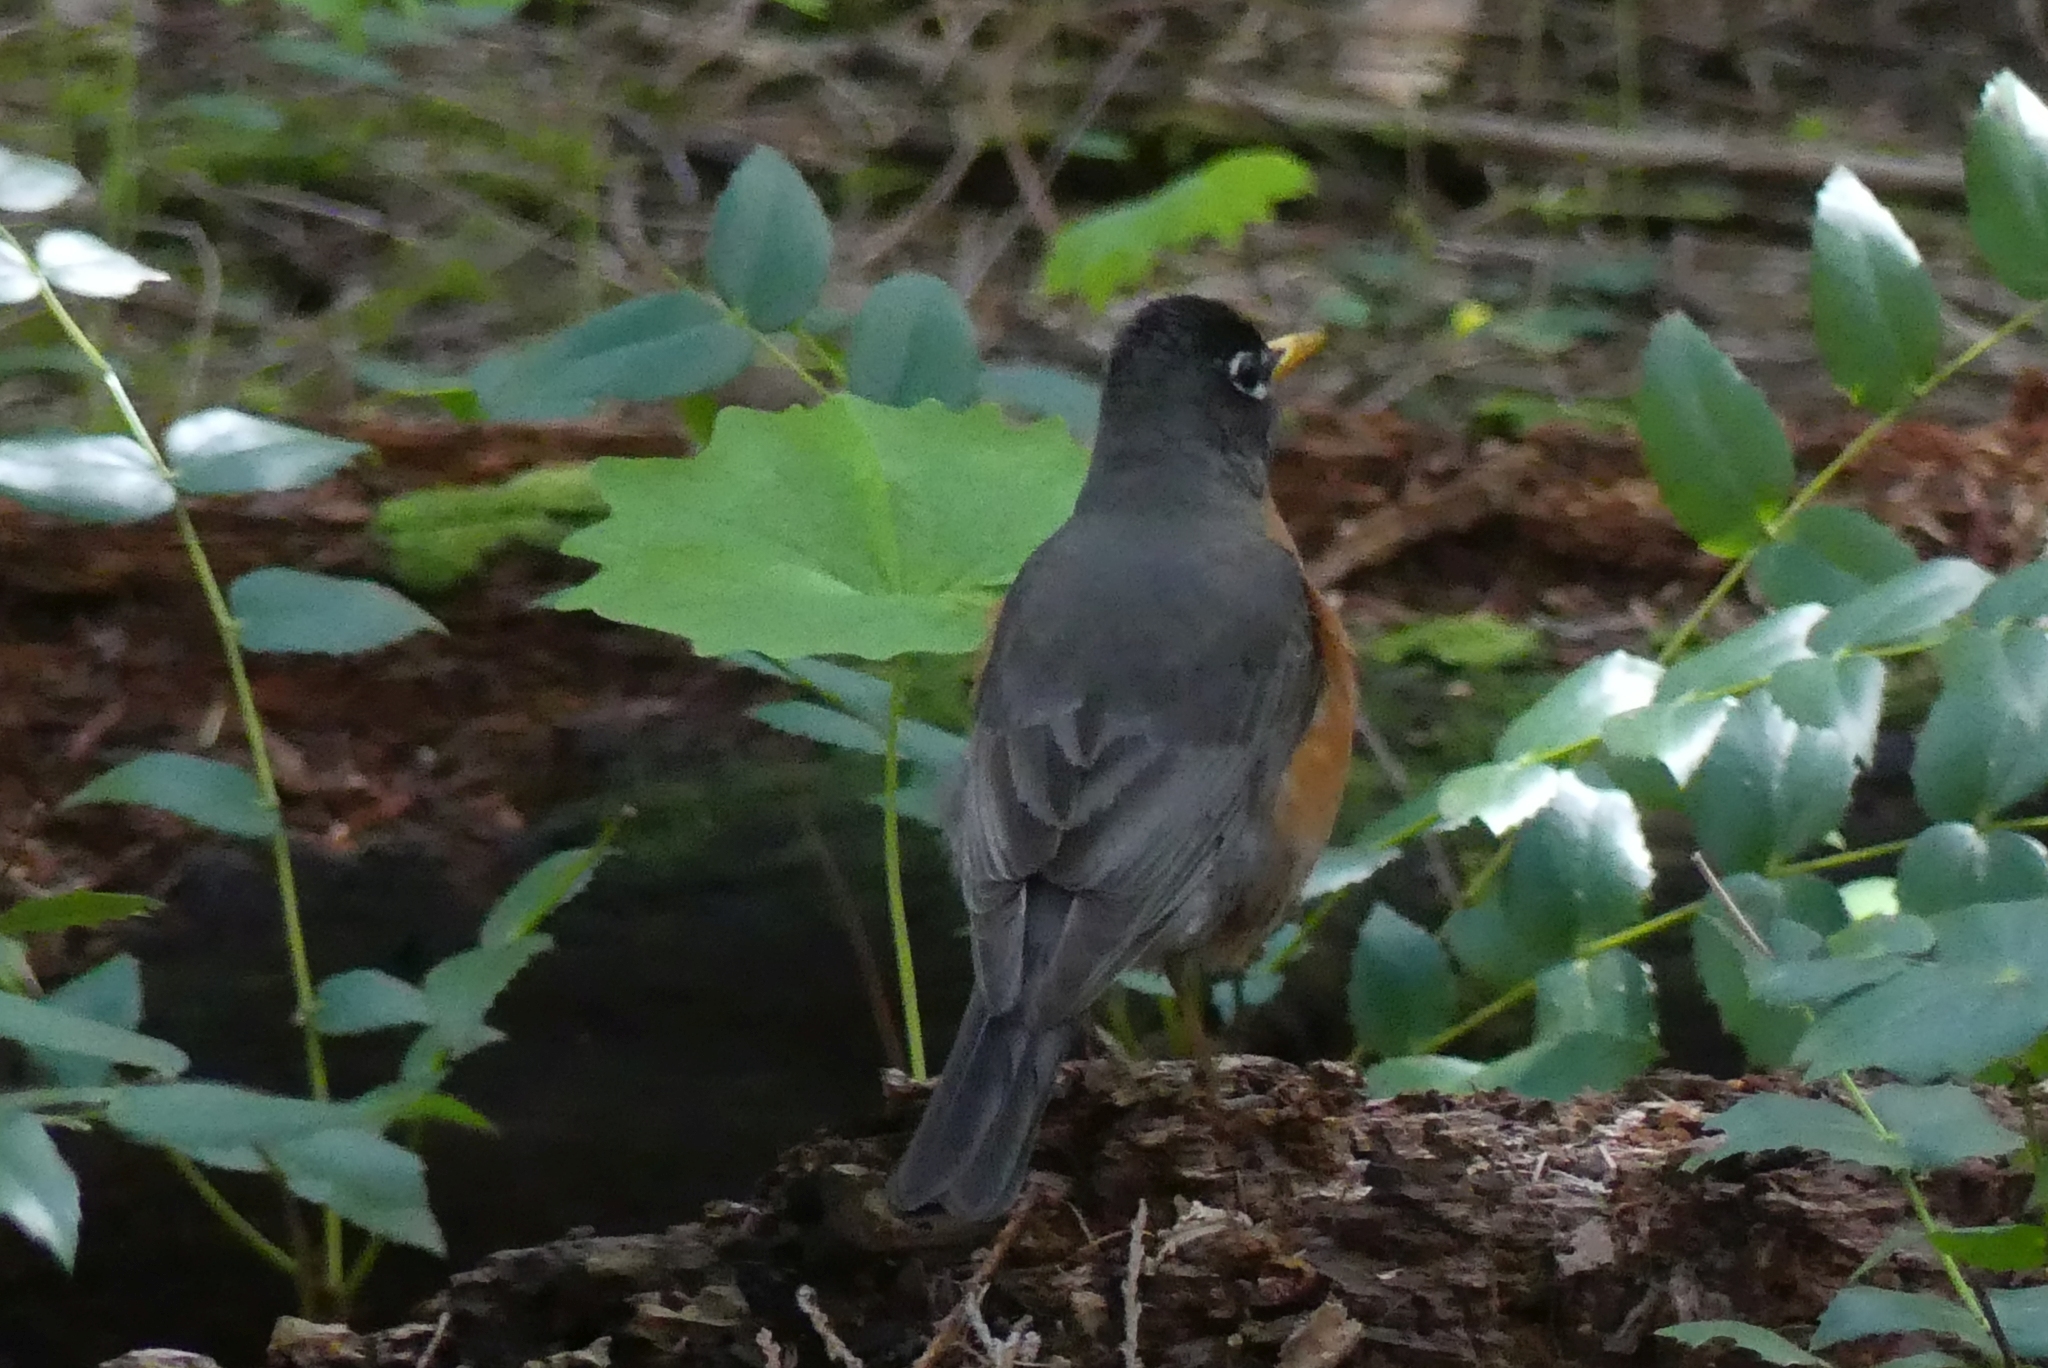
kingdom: Animalia
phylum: Chordata
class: Aves
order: Passeriformes
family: Turdidae
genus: Turdus
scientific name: Turdus migratorius
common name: American robin
